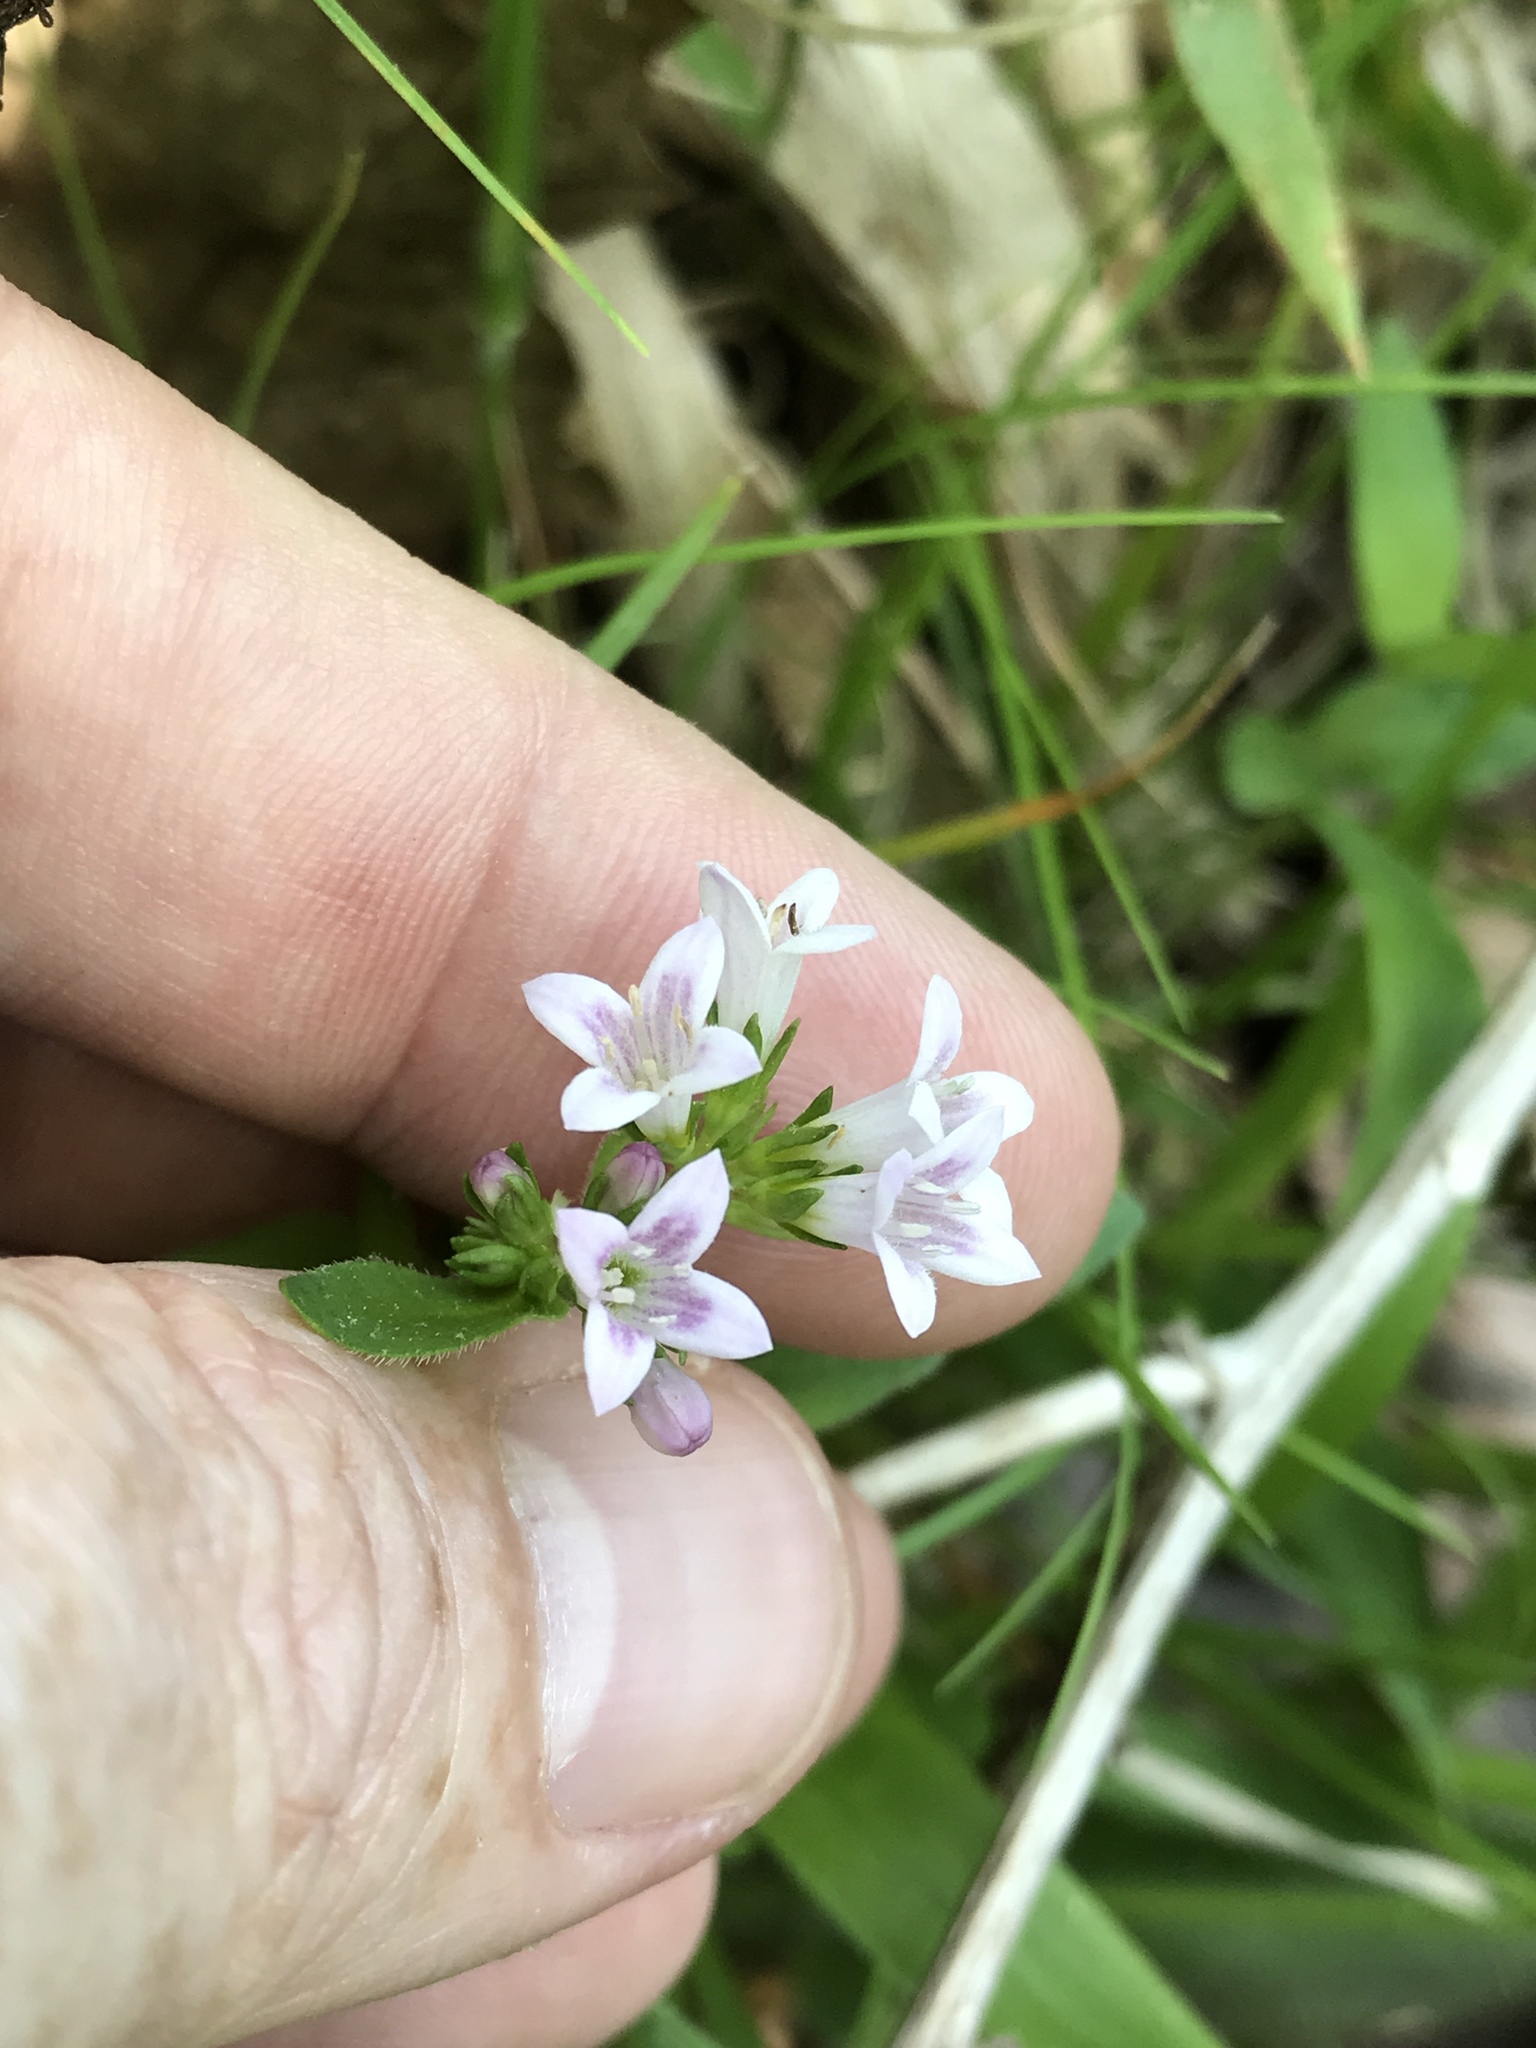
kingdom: Plantae
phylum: Tracheophyta
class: Magnoliopsida
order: Gentianales
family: Rubiaceae
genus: Houstonia
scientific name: Houstonia purpurea
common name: Summer bluet
